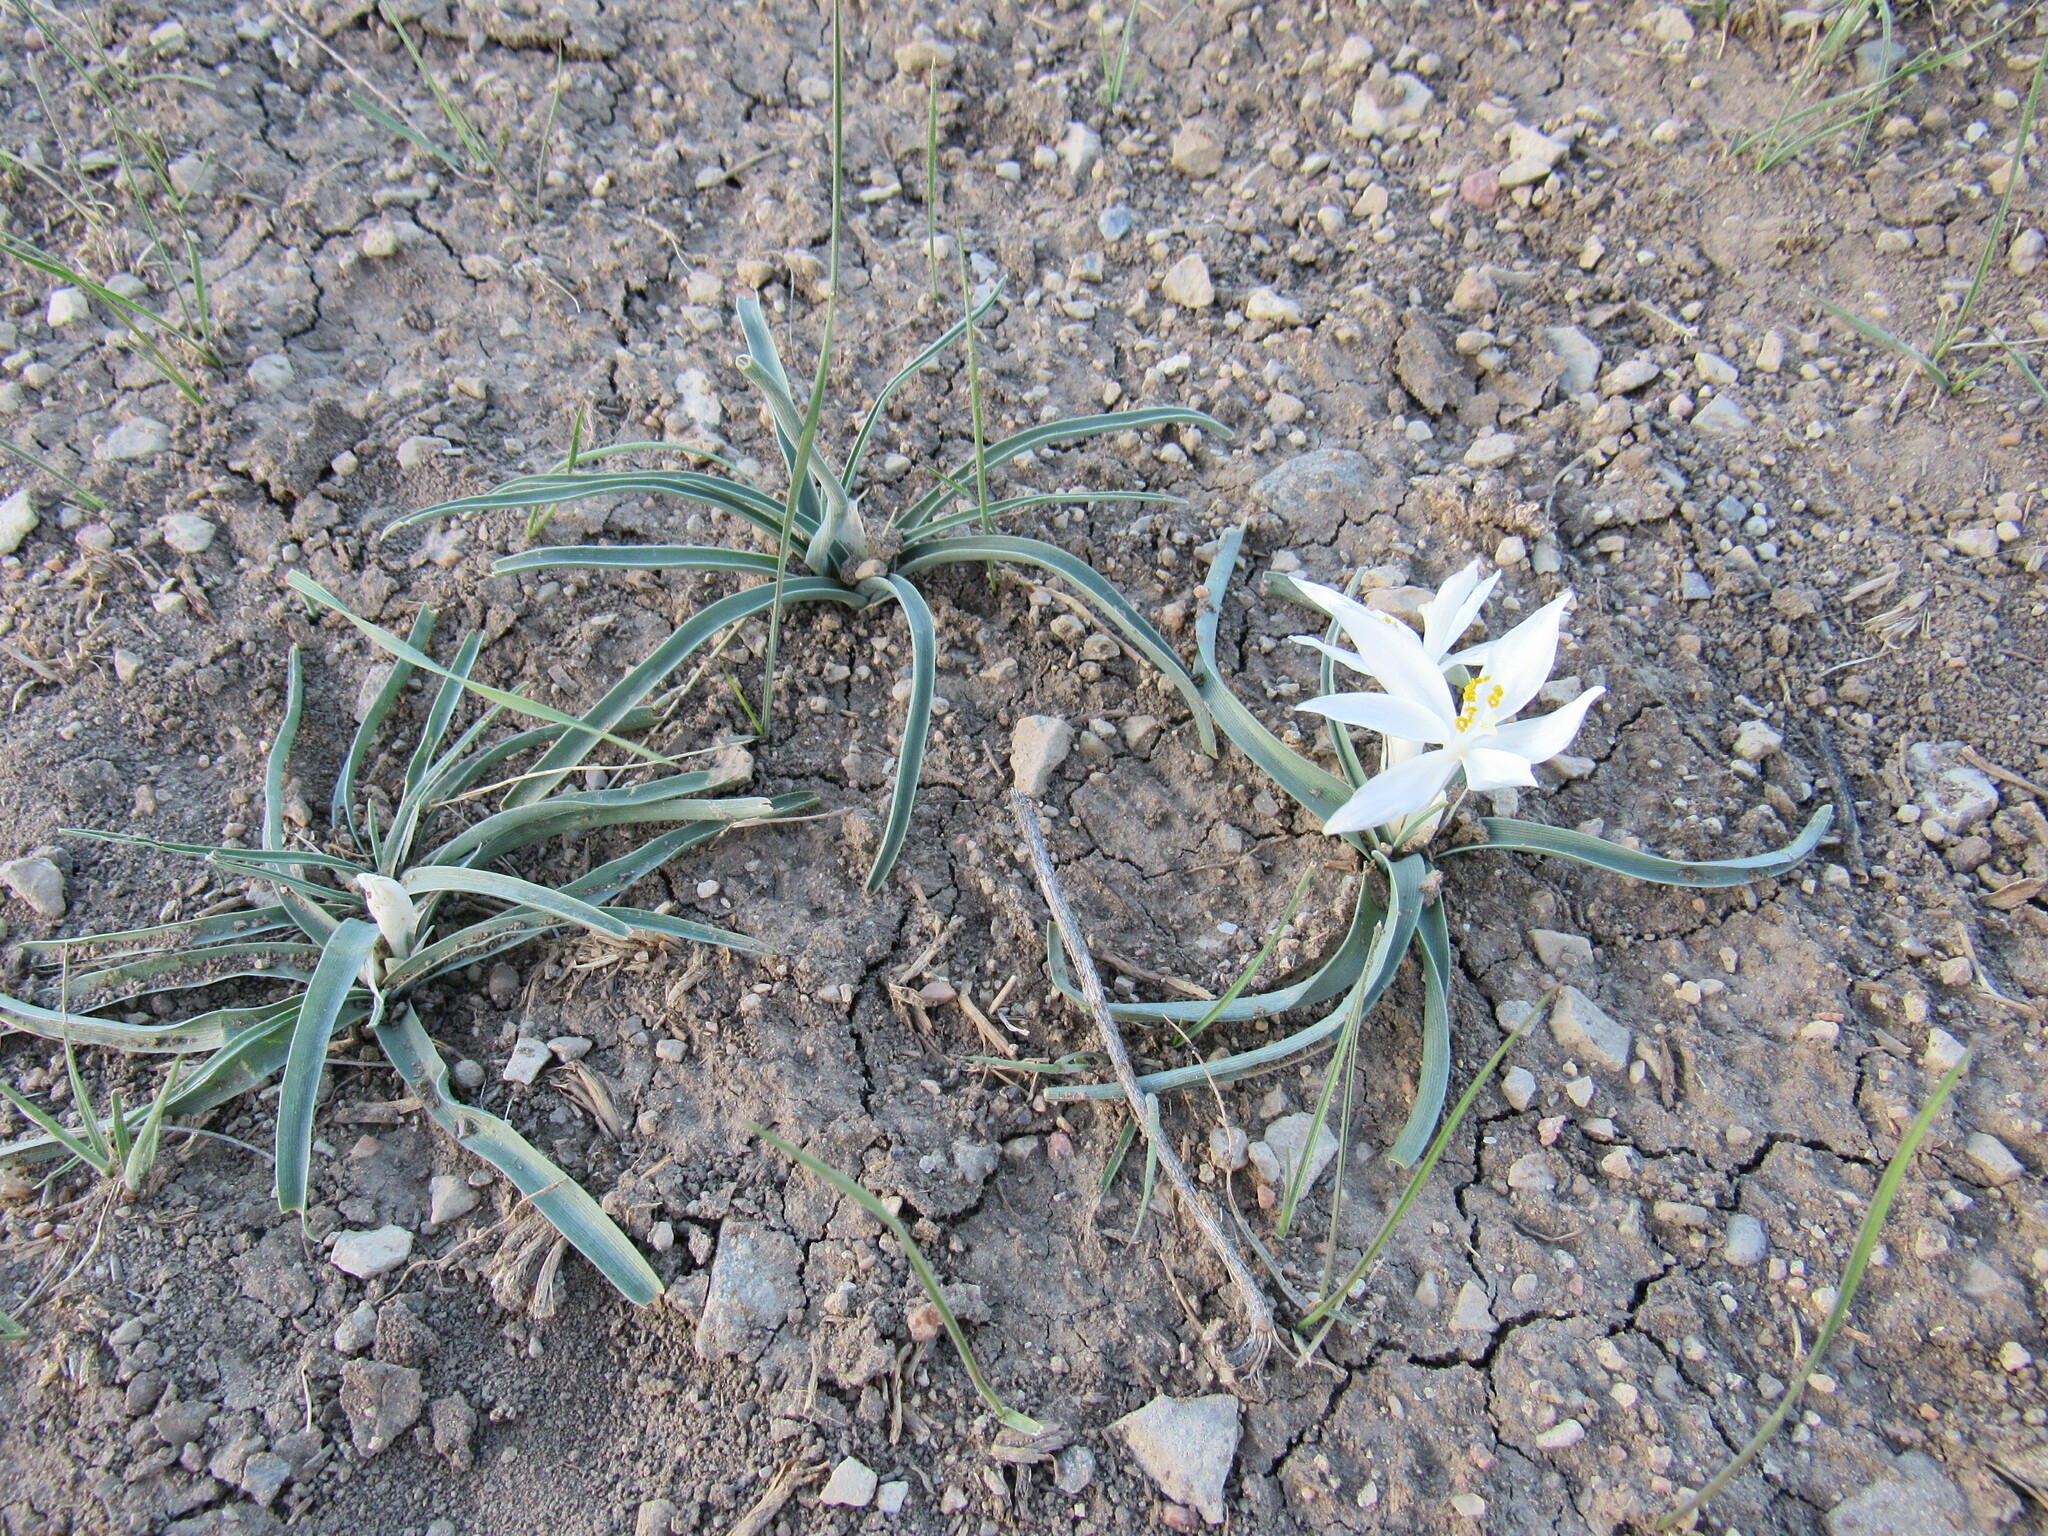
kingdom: Plantae
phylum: Tracheophyta
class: Liliopsida
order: Asparagales
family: Asparagaceae
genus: Leucocrinum
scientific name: Leucocrinum montanum
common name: Mountain-lily
